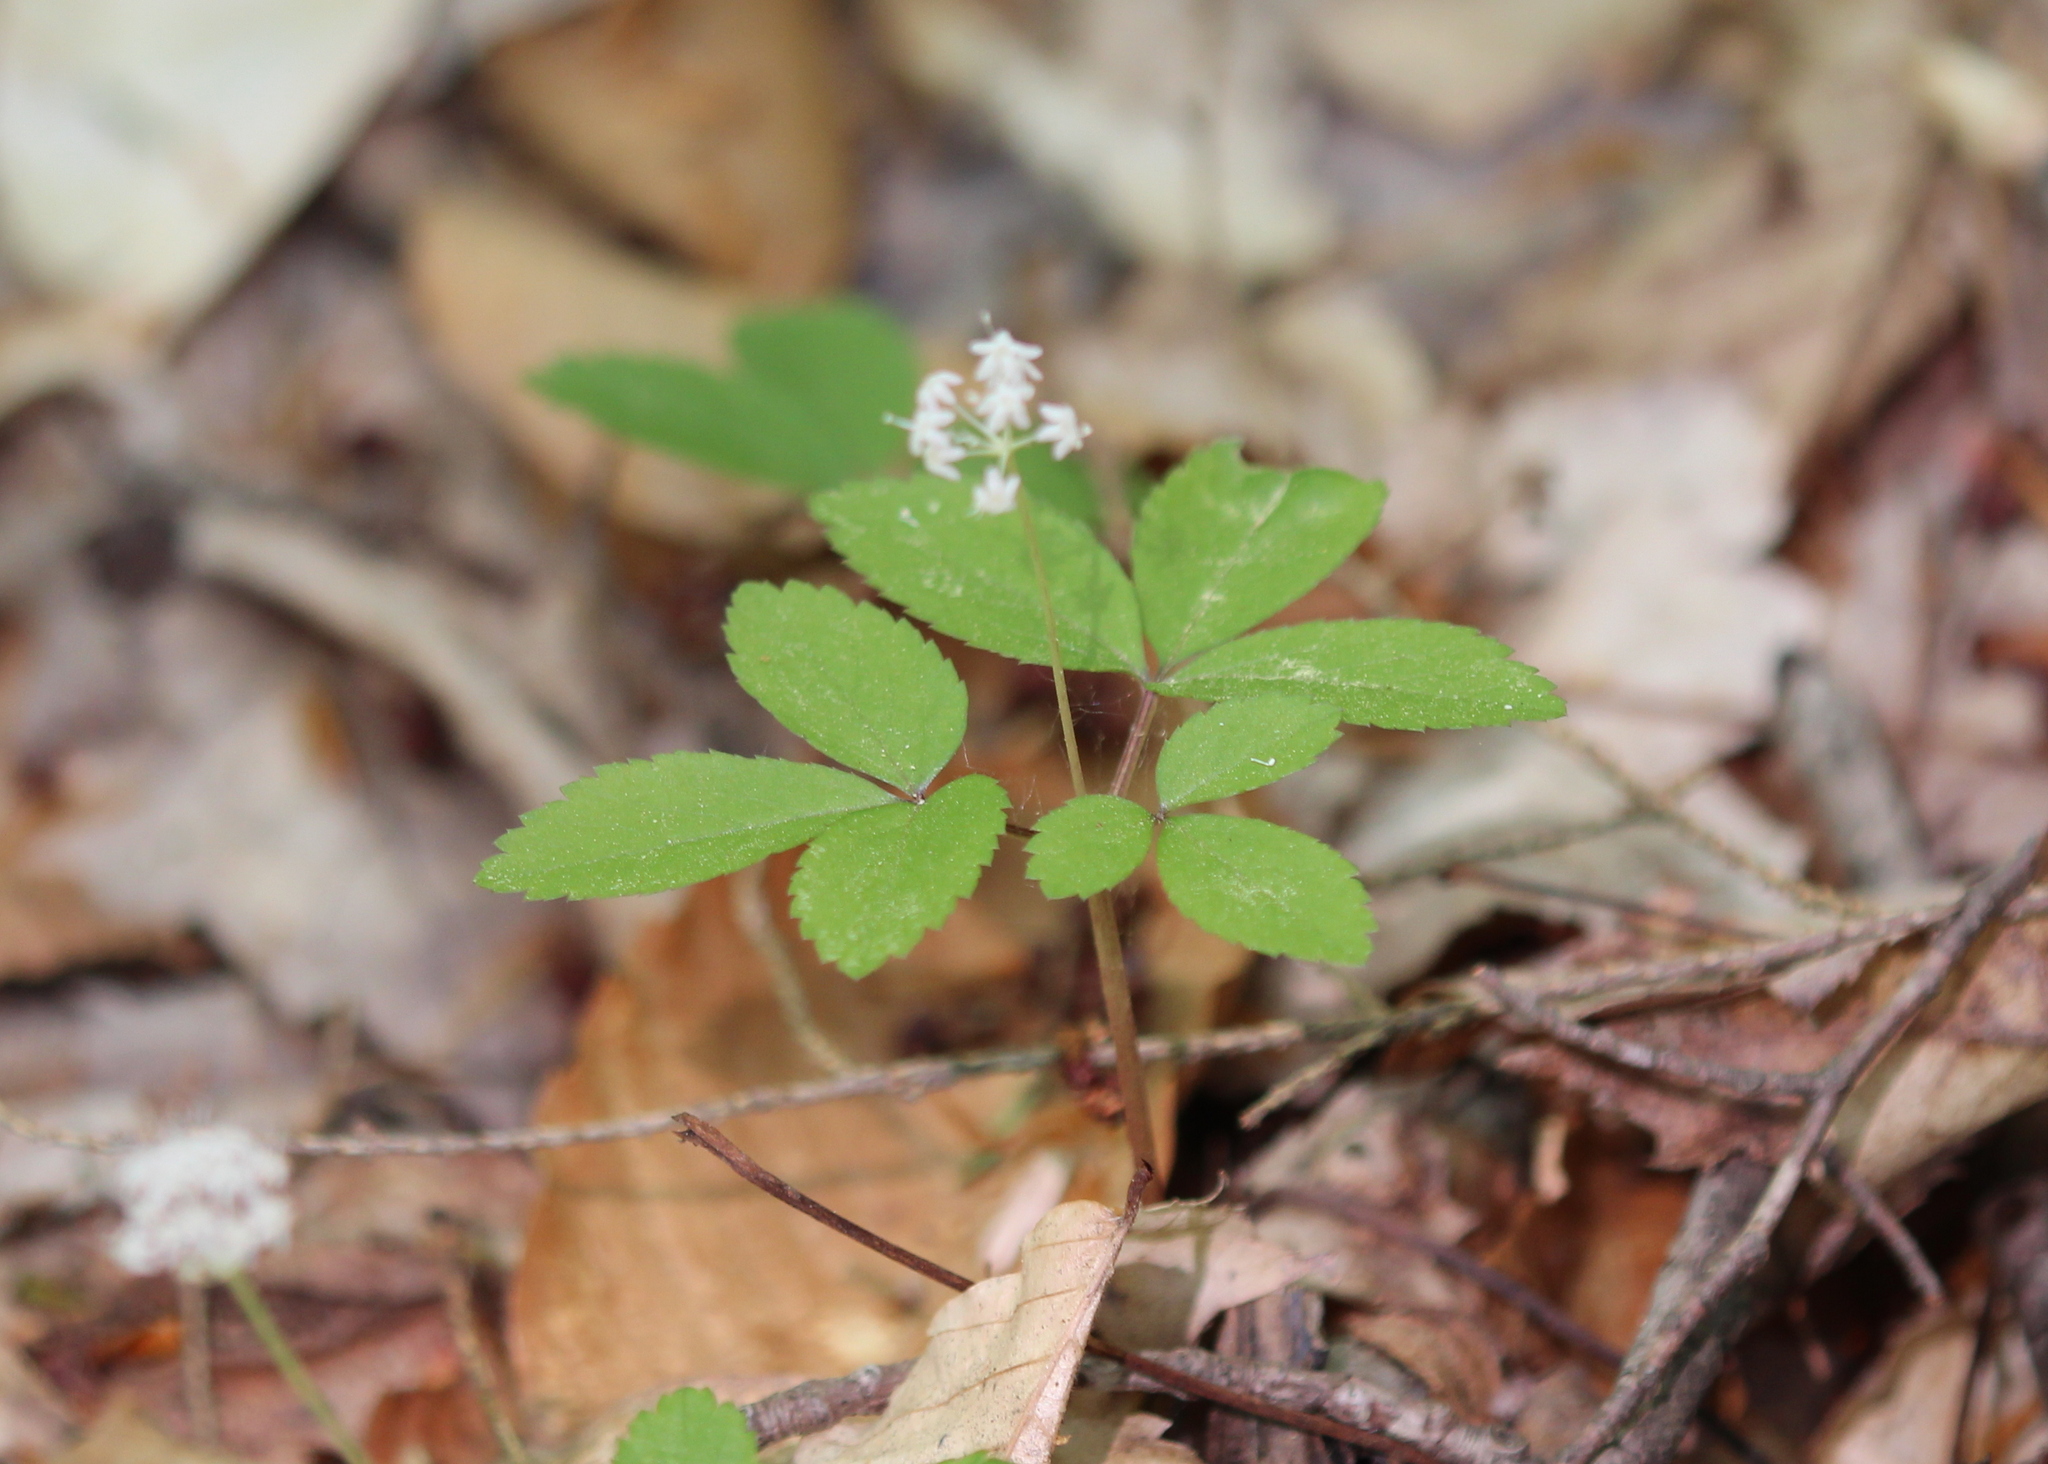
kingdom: Plantae
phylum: Tracheophyta
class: Magnoliopsida
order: Apiales
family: Araliaceae
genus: Panax
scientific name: Panax trifolius
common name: Dwarf ginseng
